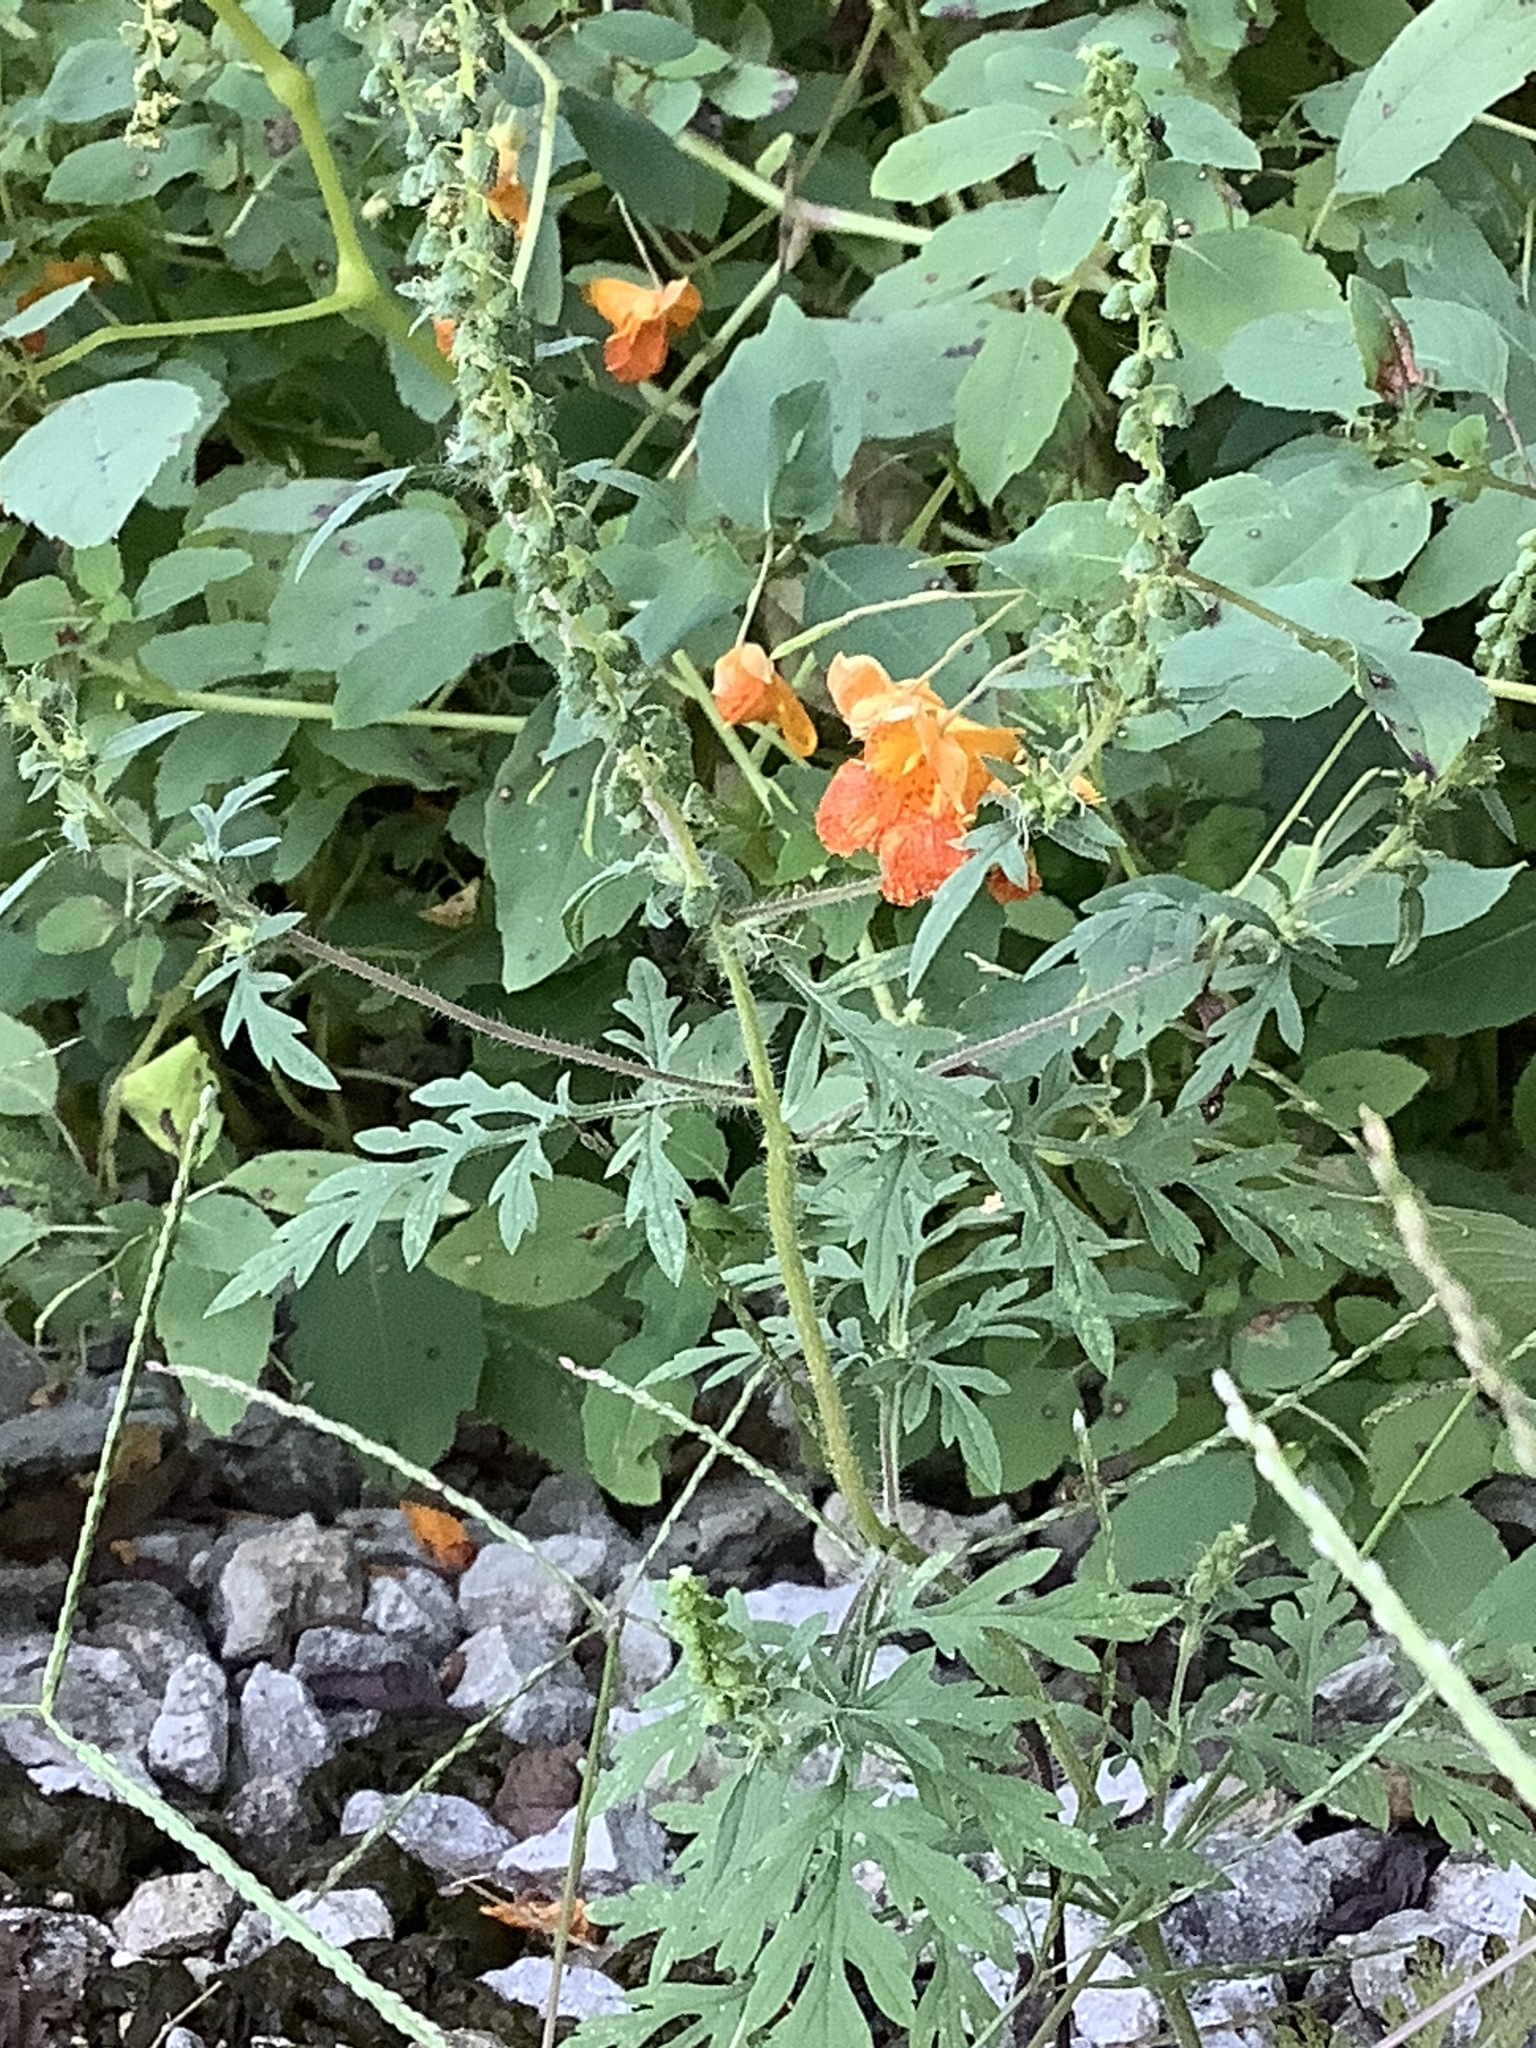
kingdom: Plantae
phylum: Tracheophyta
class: Magnoliopsida
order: Ericales
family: Balsaminaceae
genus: Impatiens
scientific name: Impatiens capensis
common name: Orange balsam
